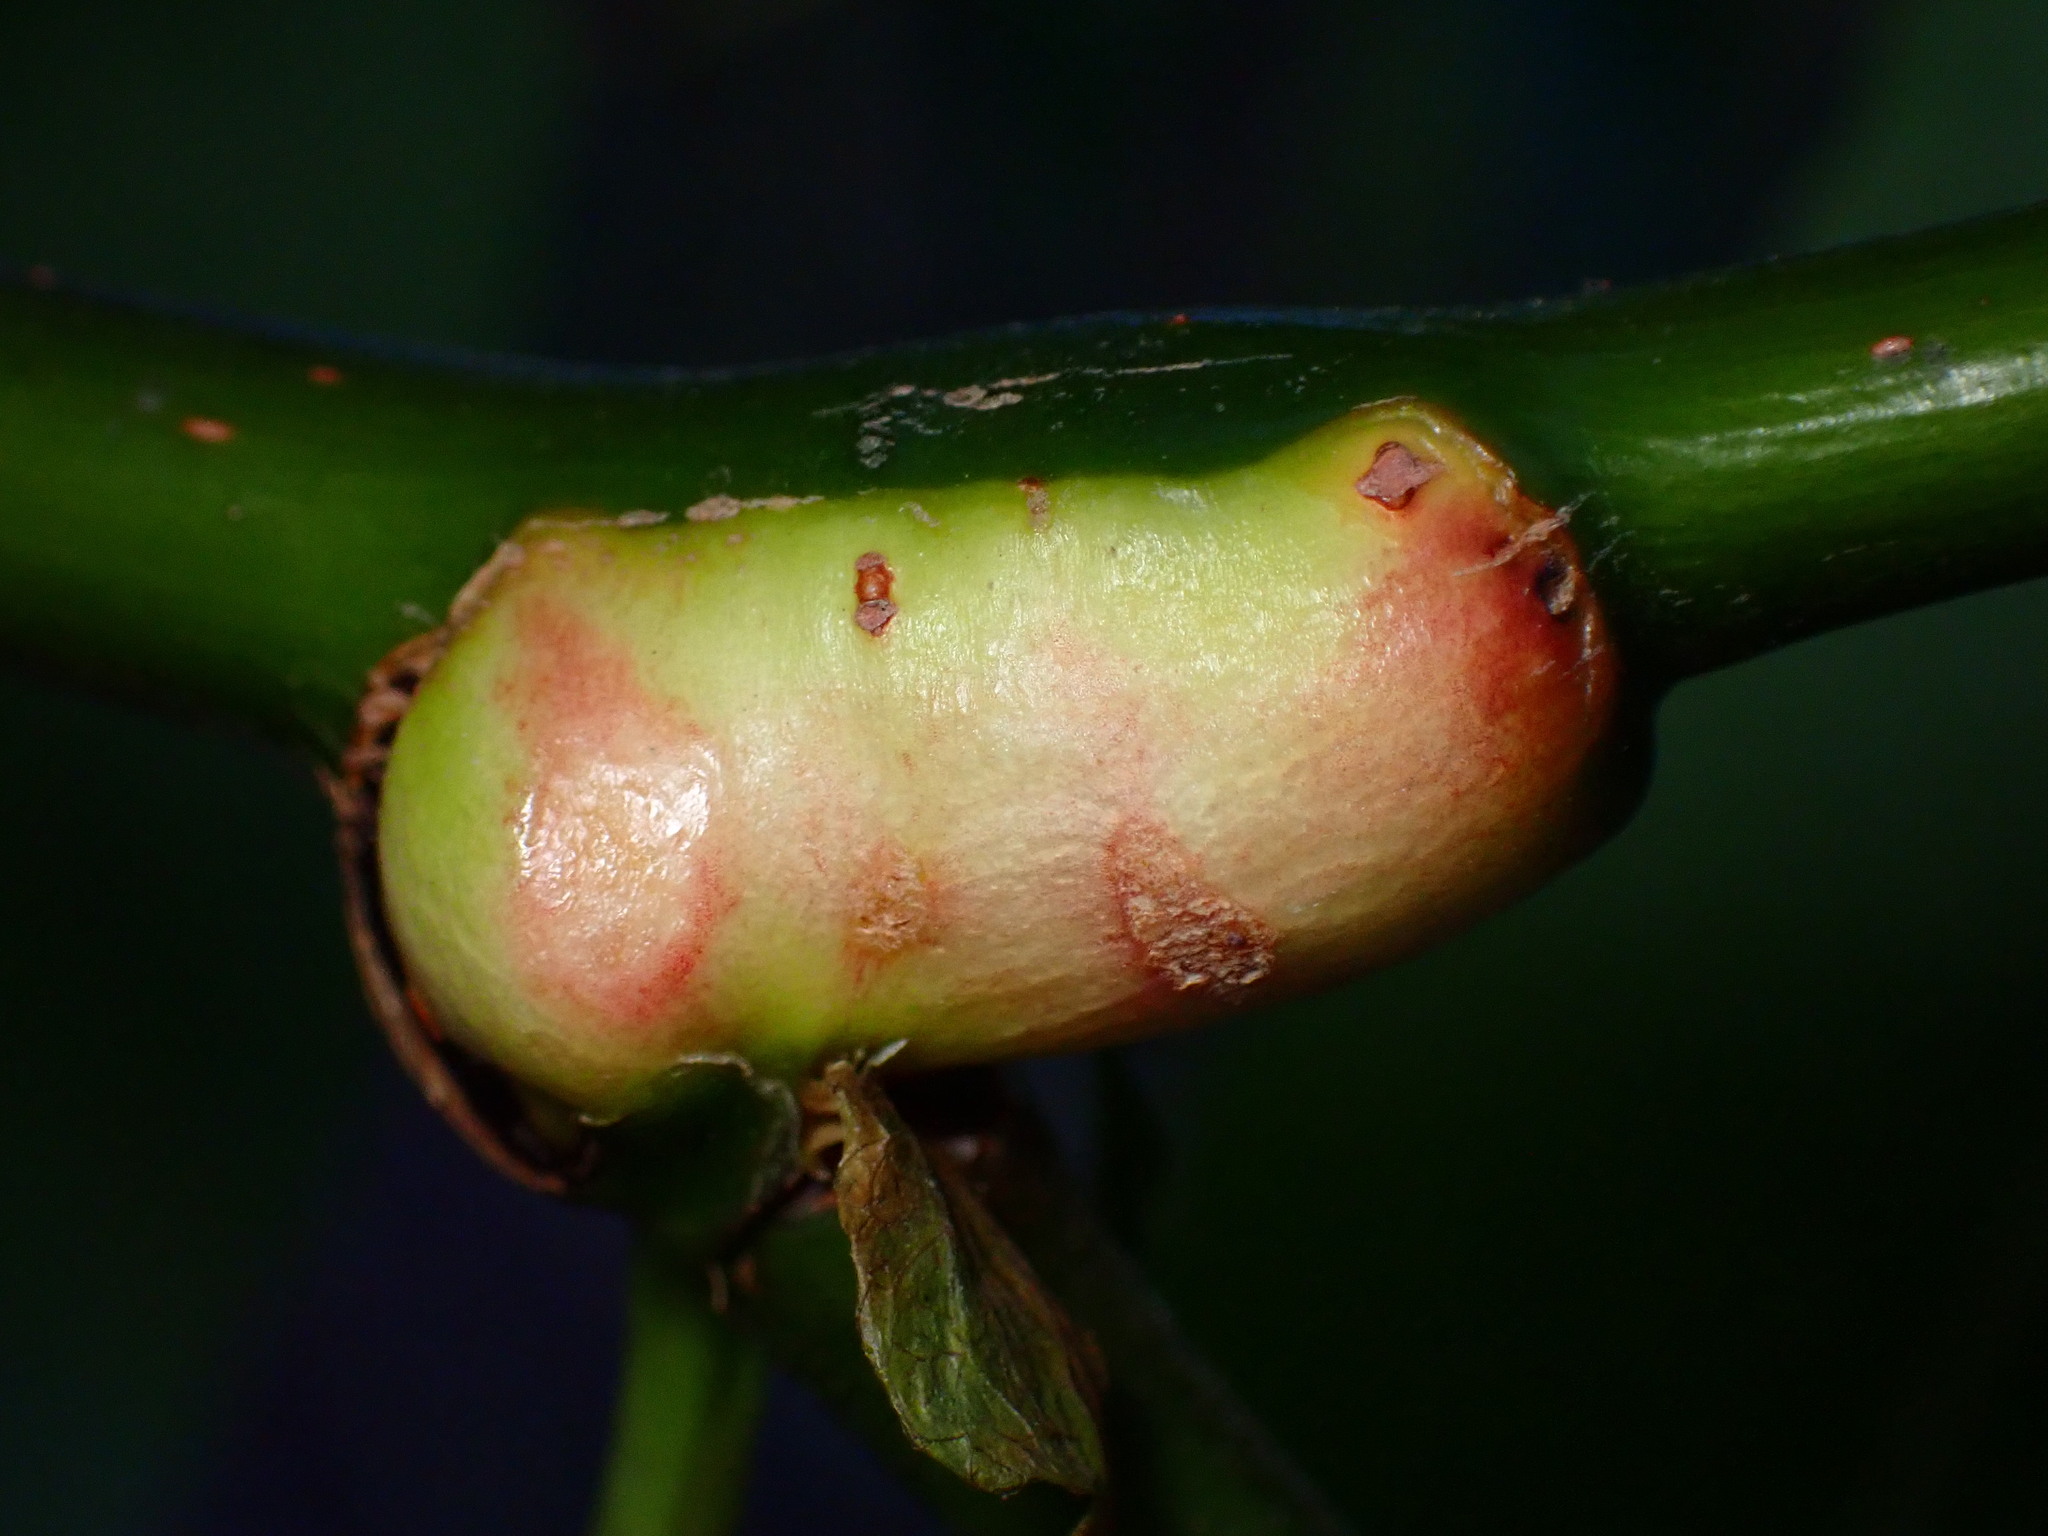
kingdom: Animalia
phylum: Arthropoda
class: Insecta
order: Diptera
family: Cecidomyiidae
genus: Rabdophaga
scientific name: Rabdophaga salicisbatatas
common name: Potato gall midge
